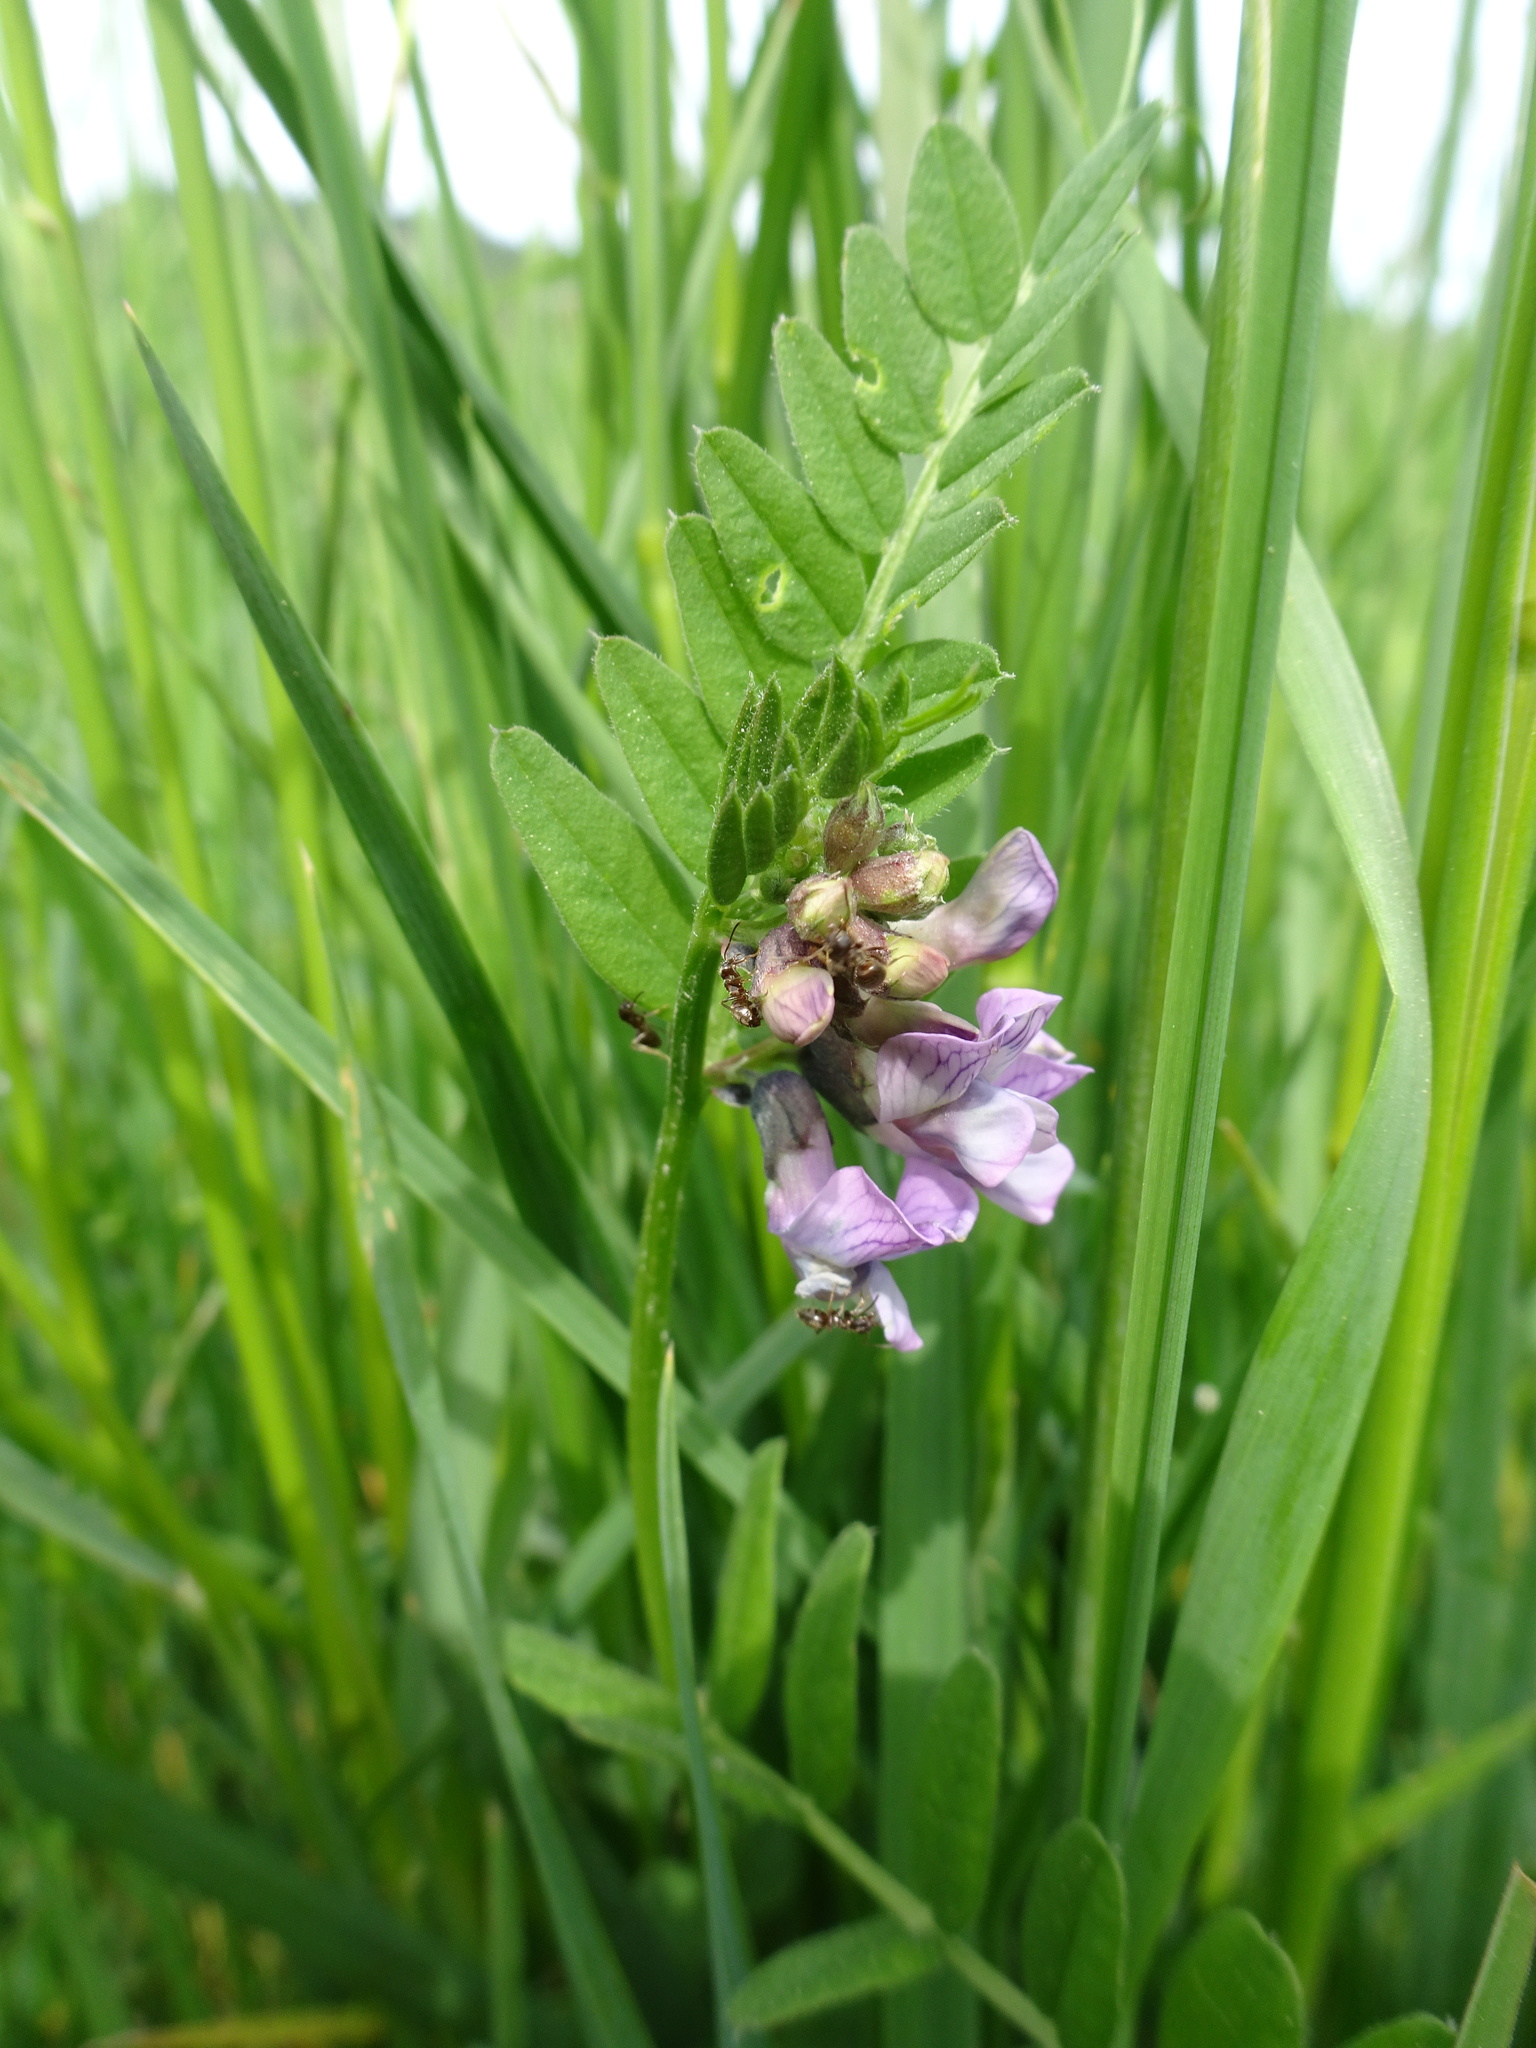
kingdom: Plantae
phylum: Tracheophyta
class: Magnoliopsida
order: Fabales
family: Fabaceae
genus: Vicia
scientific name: Vicia sepium
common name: Bush vetch
